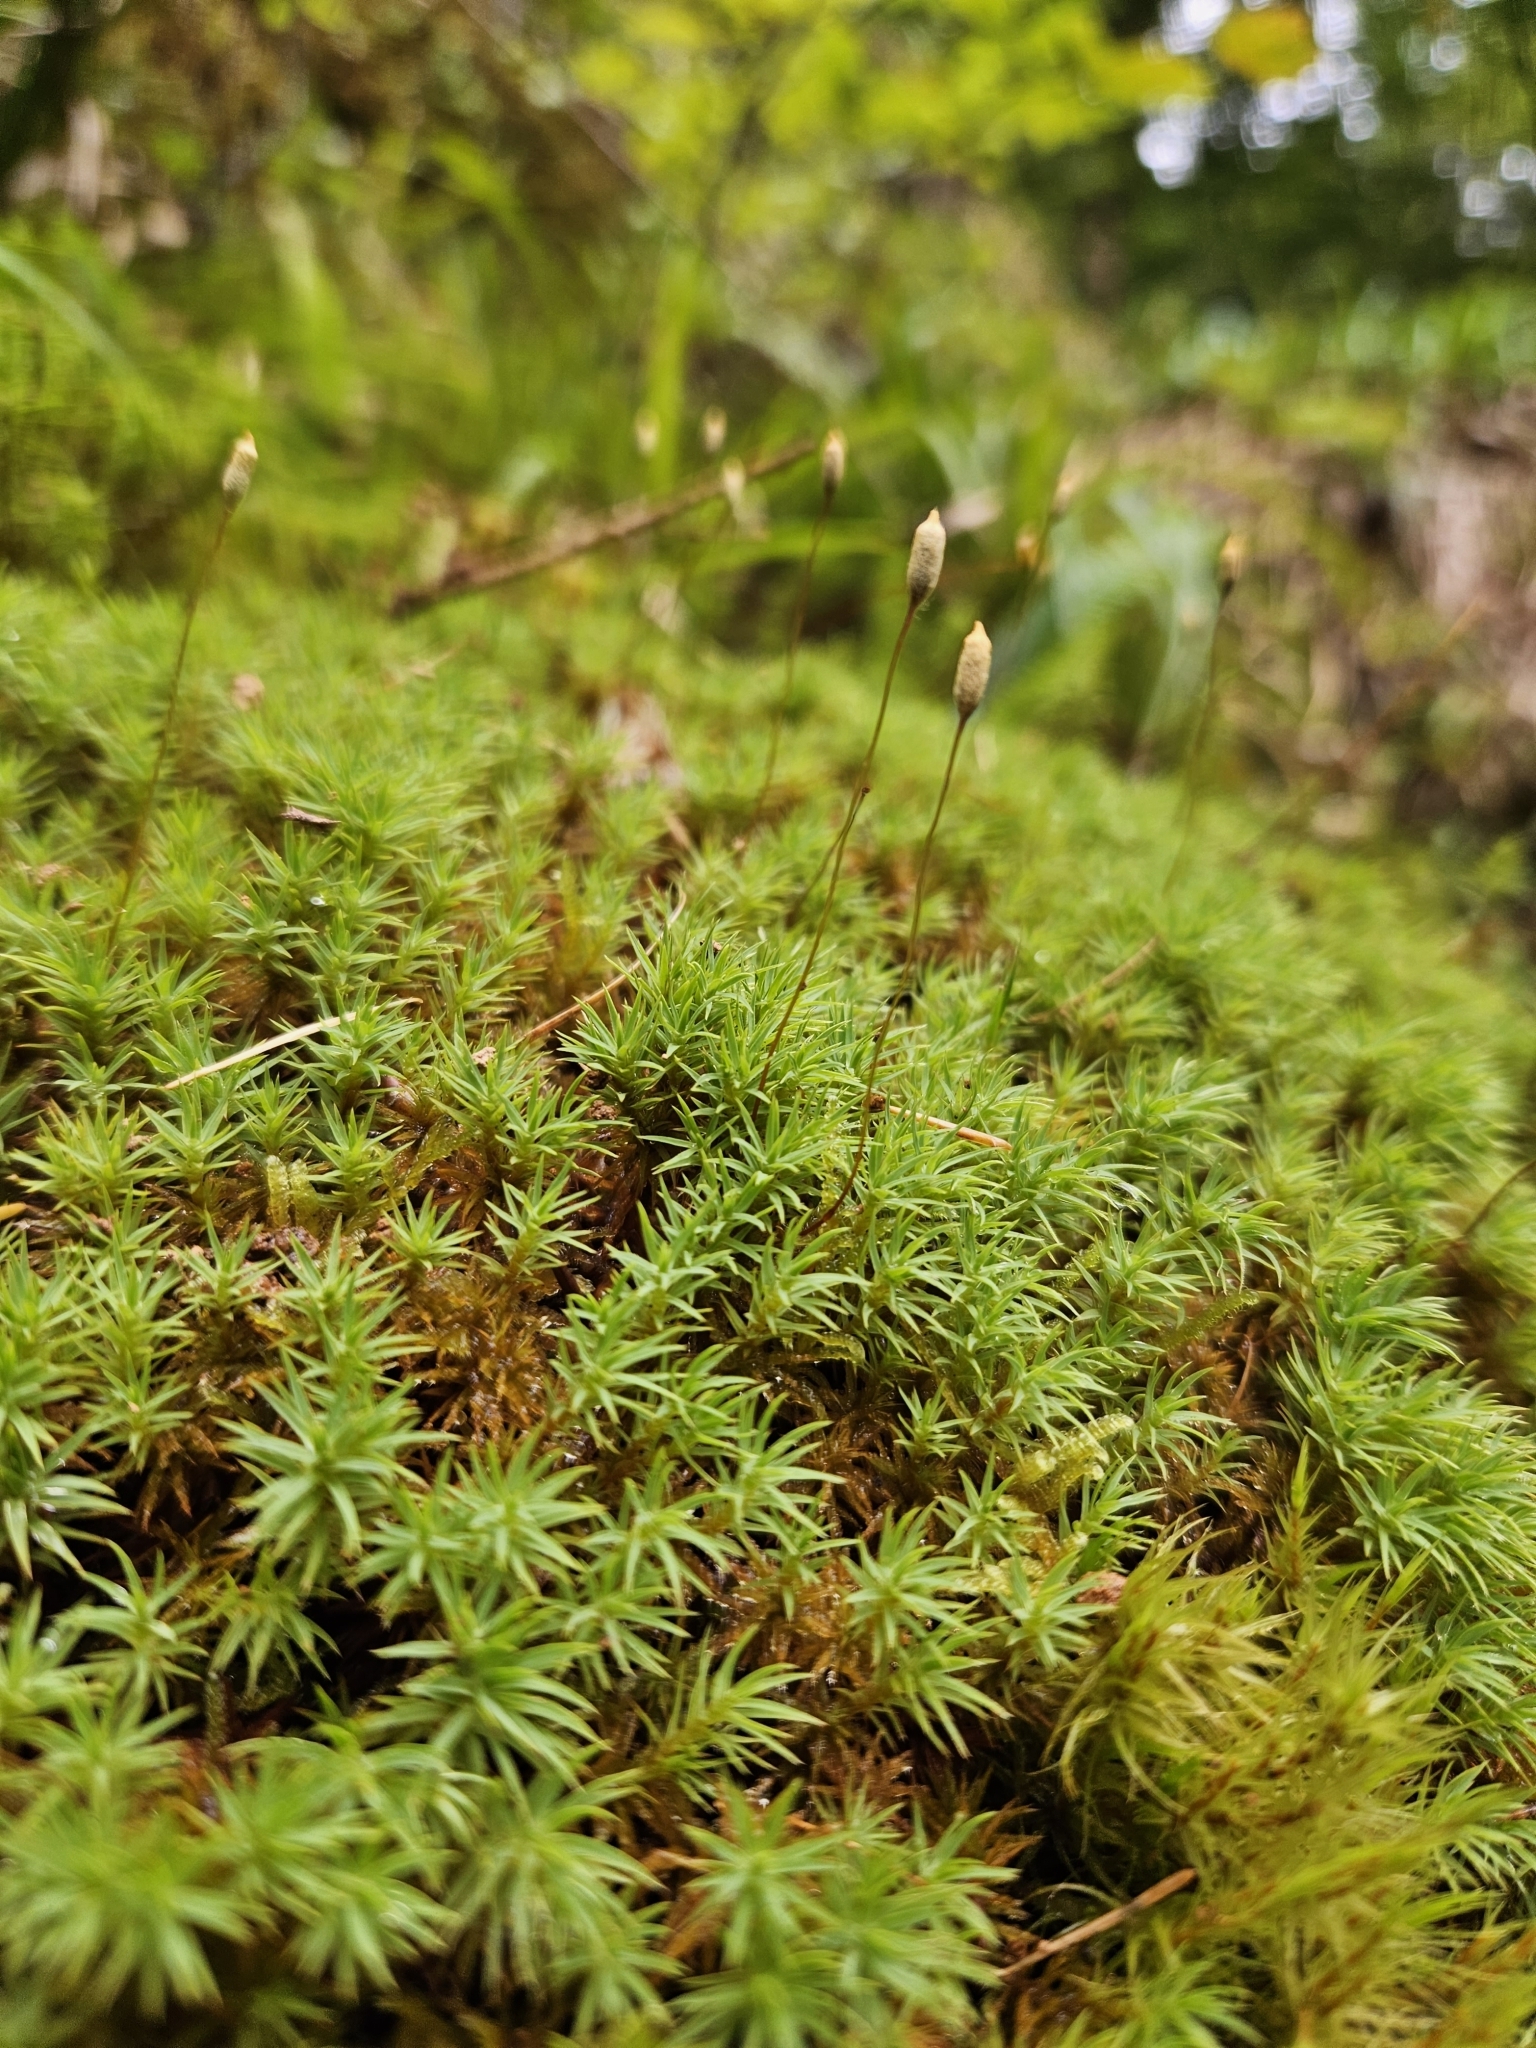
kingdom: Plantae
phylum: Bryophyta
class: Polytrichopsida
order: Polytrichales
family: Polytrichaceae
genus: Pogonatum
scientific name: Pogonatum urnigerum
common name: Urn hair moss
